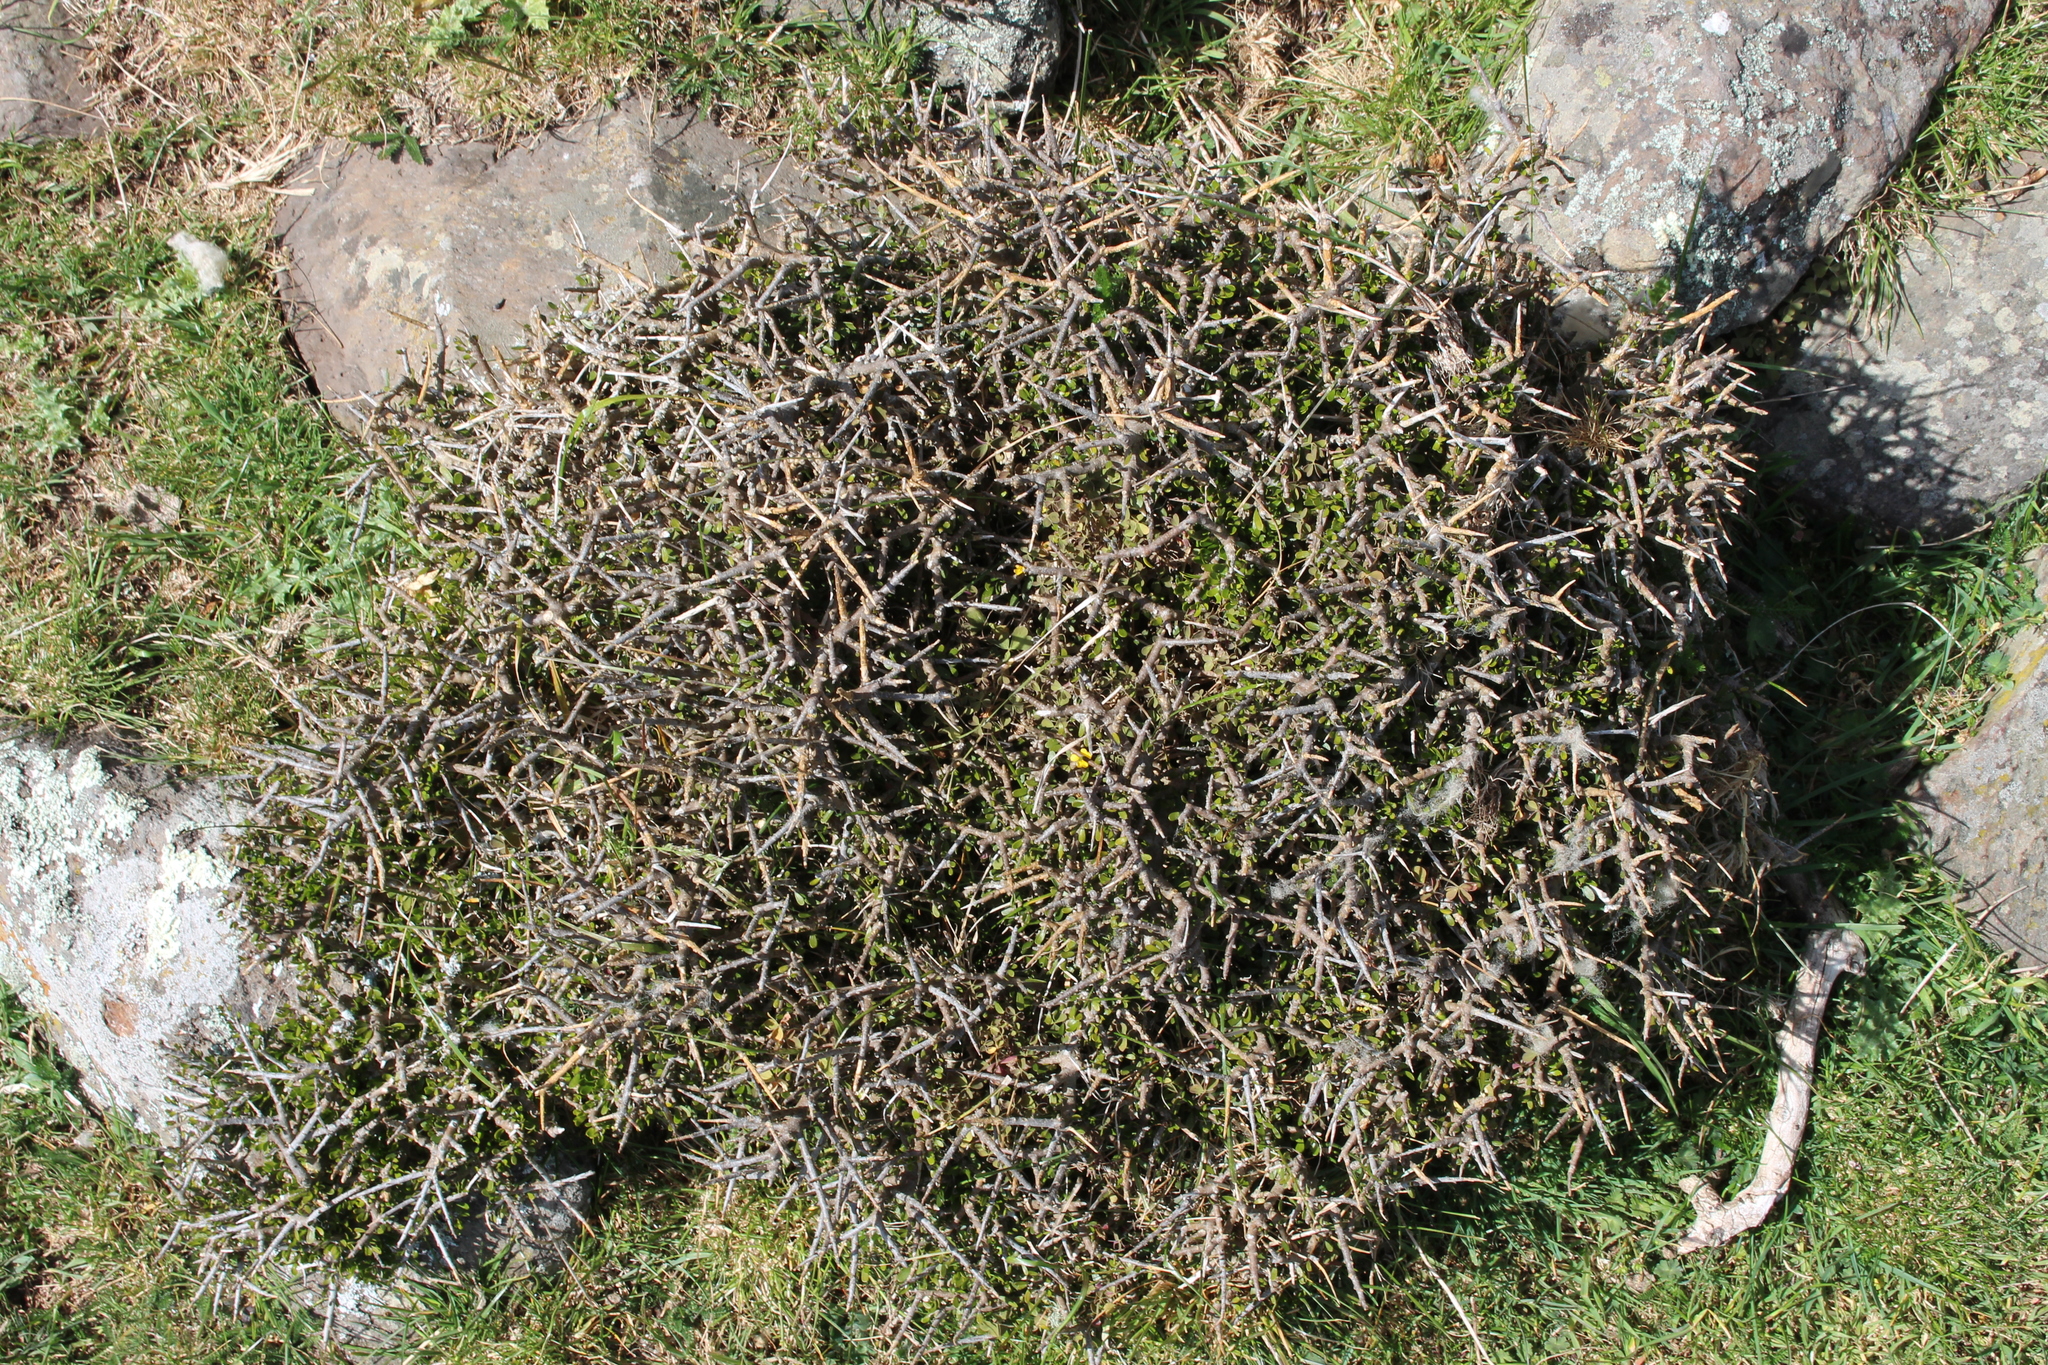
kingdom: Plantae
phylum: Tracheophyta
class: Magnoliopsida
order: Malpighiales
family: Violaceae
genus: Melicytus
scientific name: Melicytus alpinus
